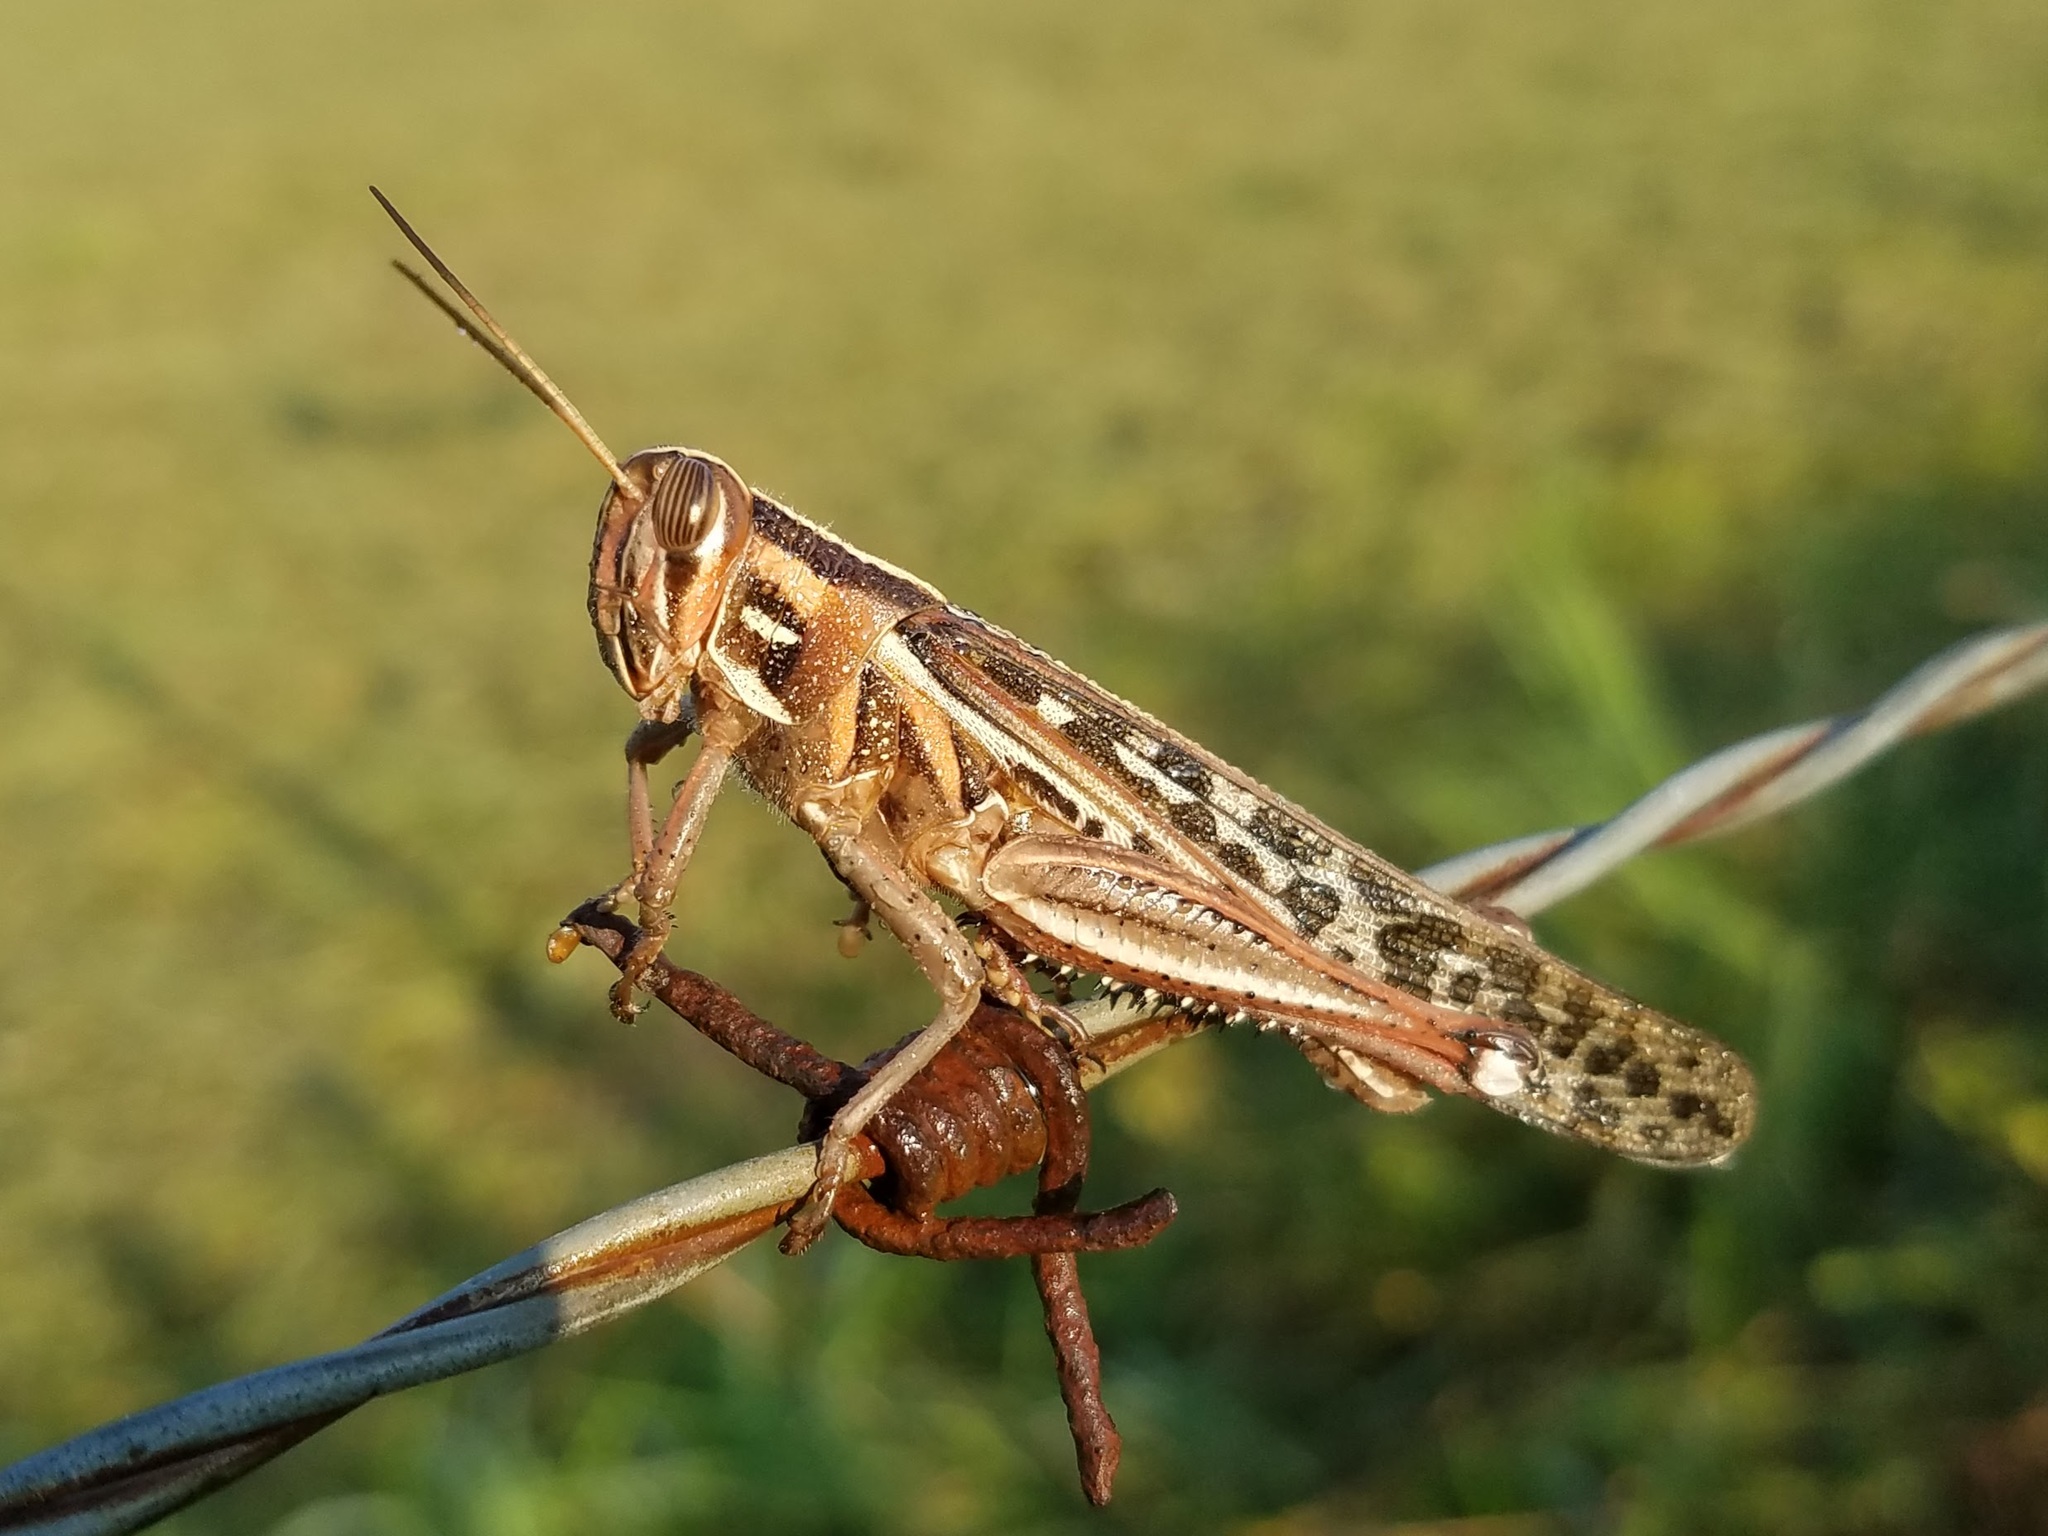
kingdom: Animalia
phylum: Arthropoda
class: Insecta
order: Orthoptera
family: Acrididae
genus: Schistocerca
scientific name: Schistocerca americana
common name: American bird locust
